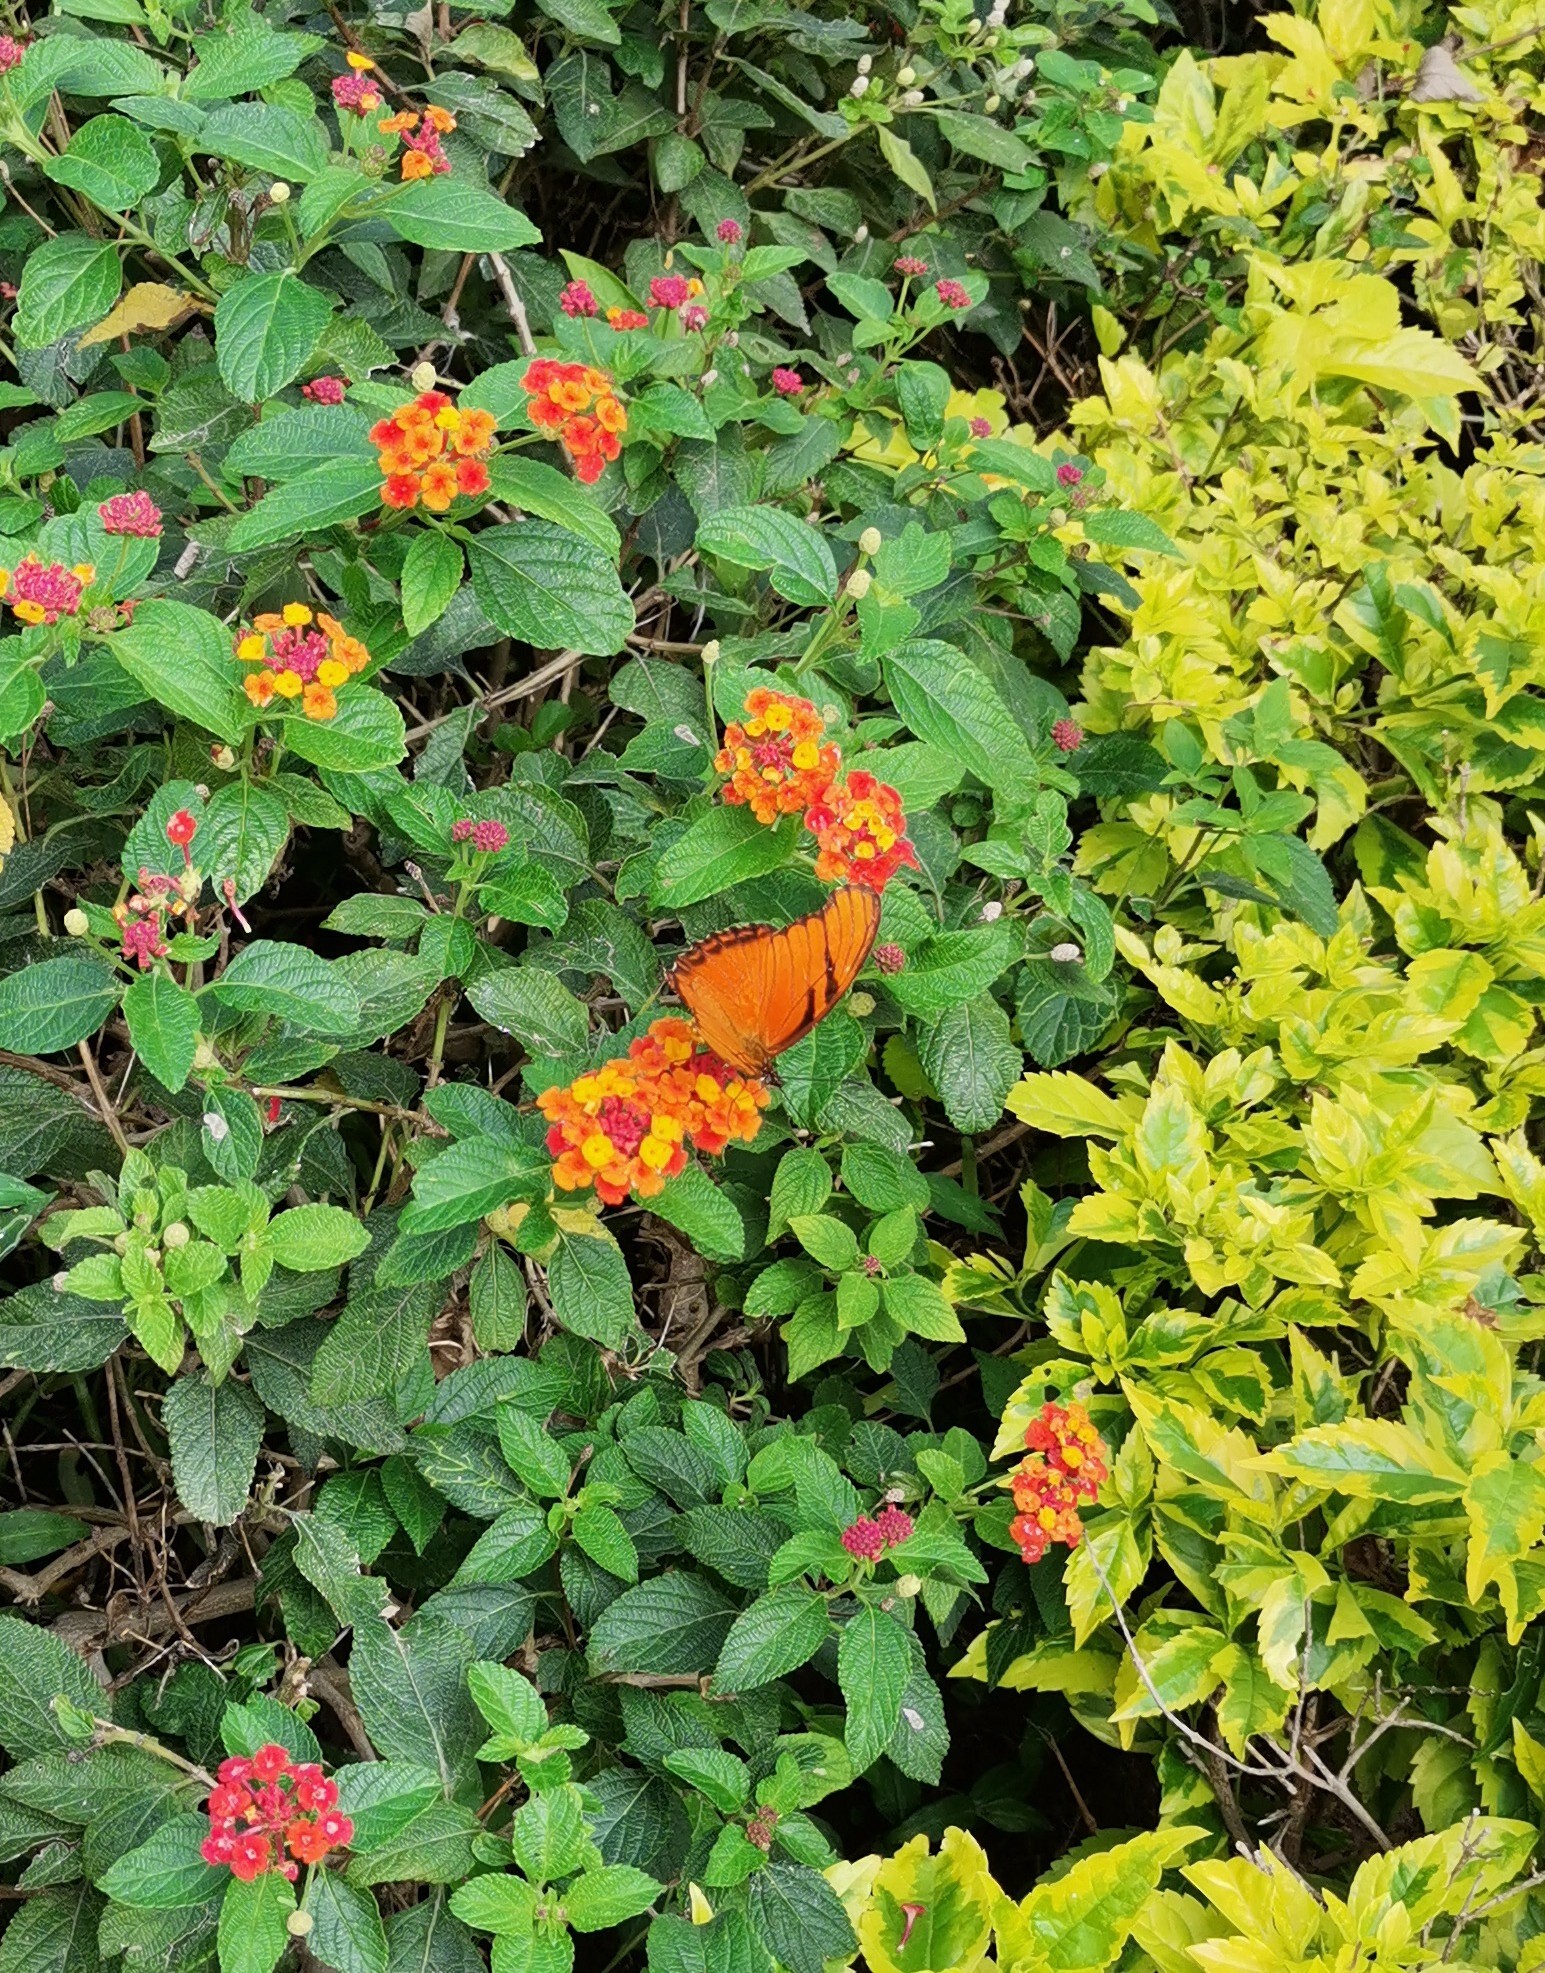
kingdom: Animalia
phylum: Arthropoda
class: Insecta
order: Lepidoptera
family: Nymphalidae
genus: Dione
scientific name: Dione juno
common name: Juno silverspot
